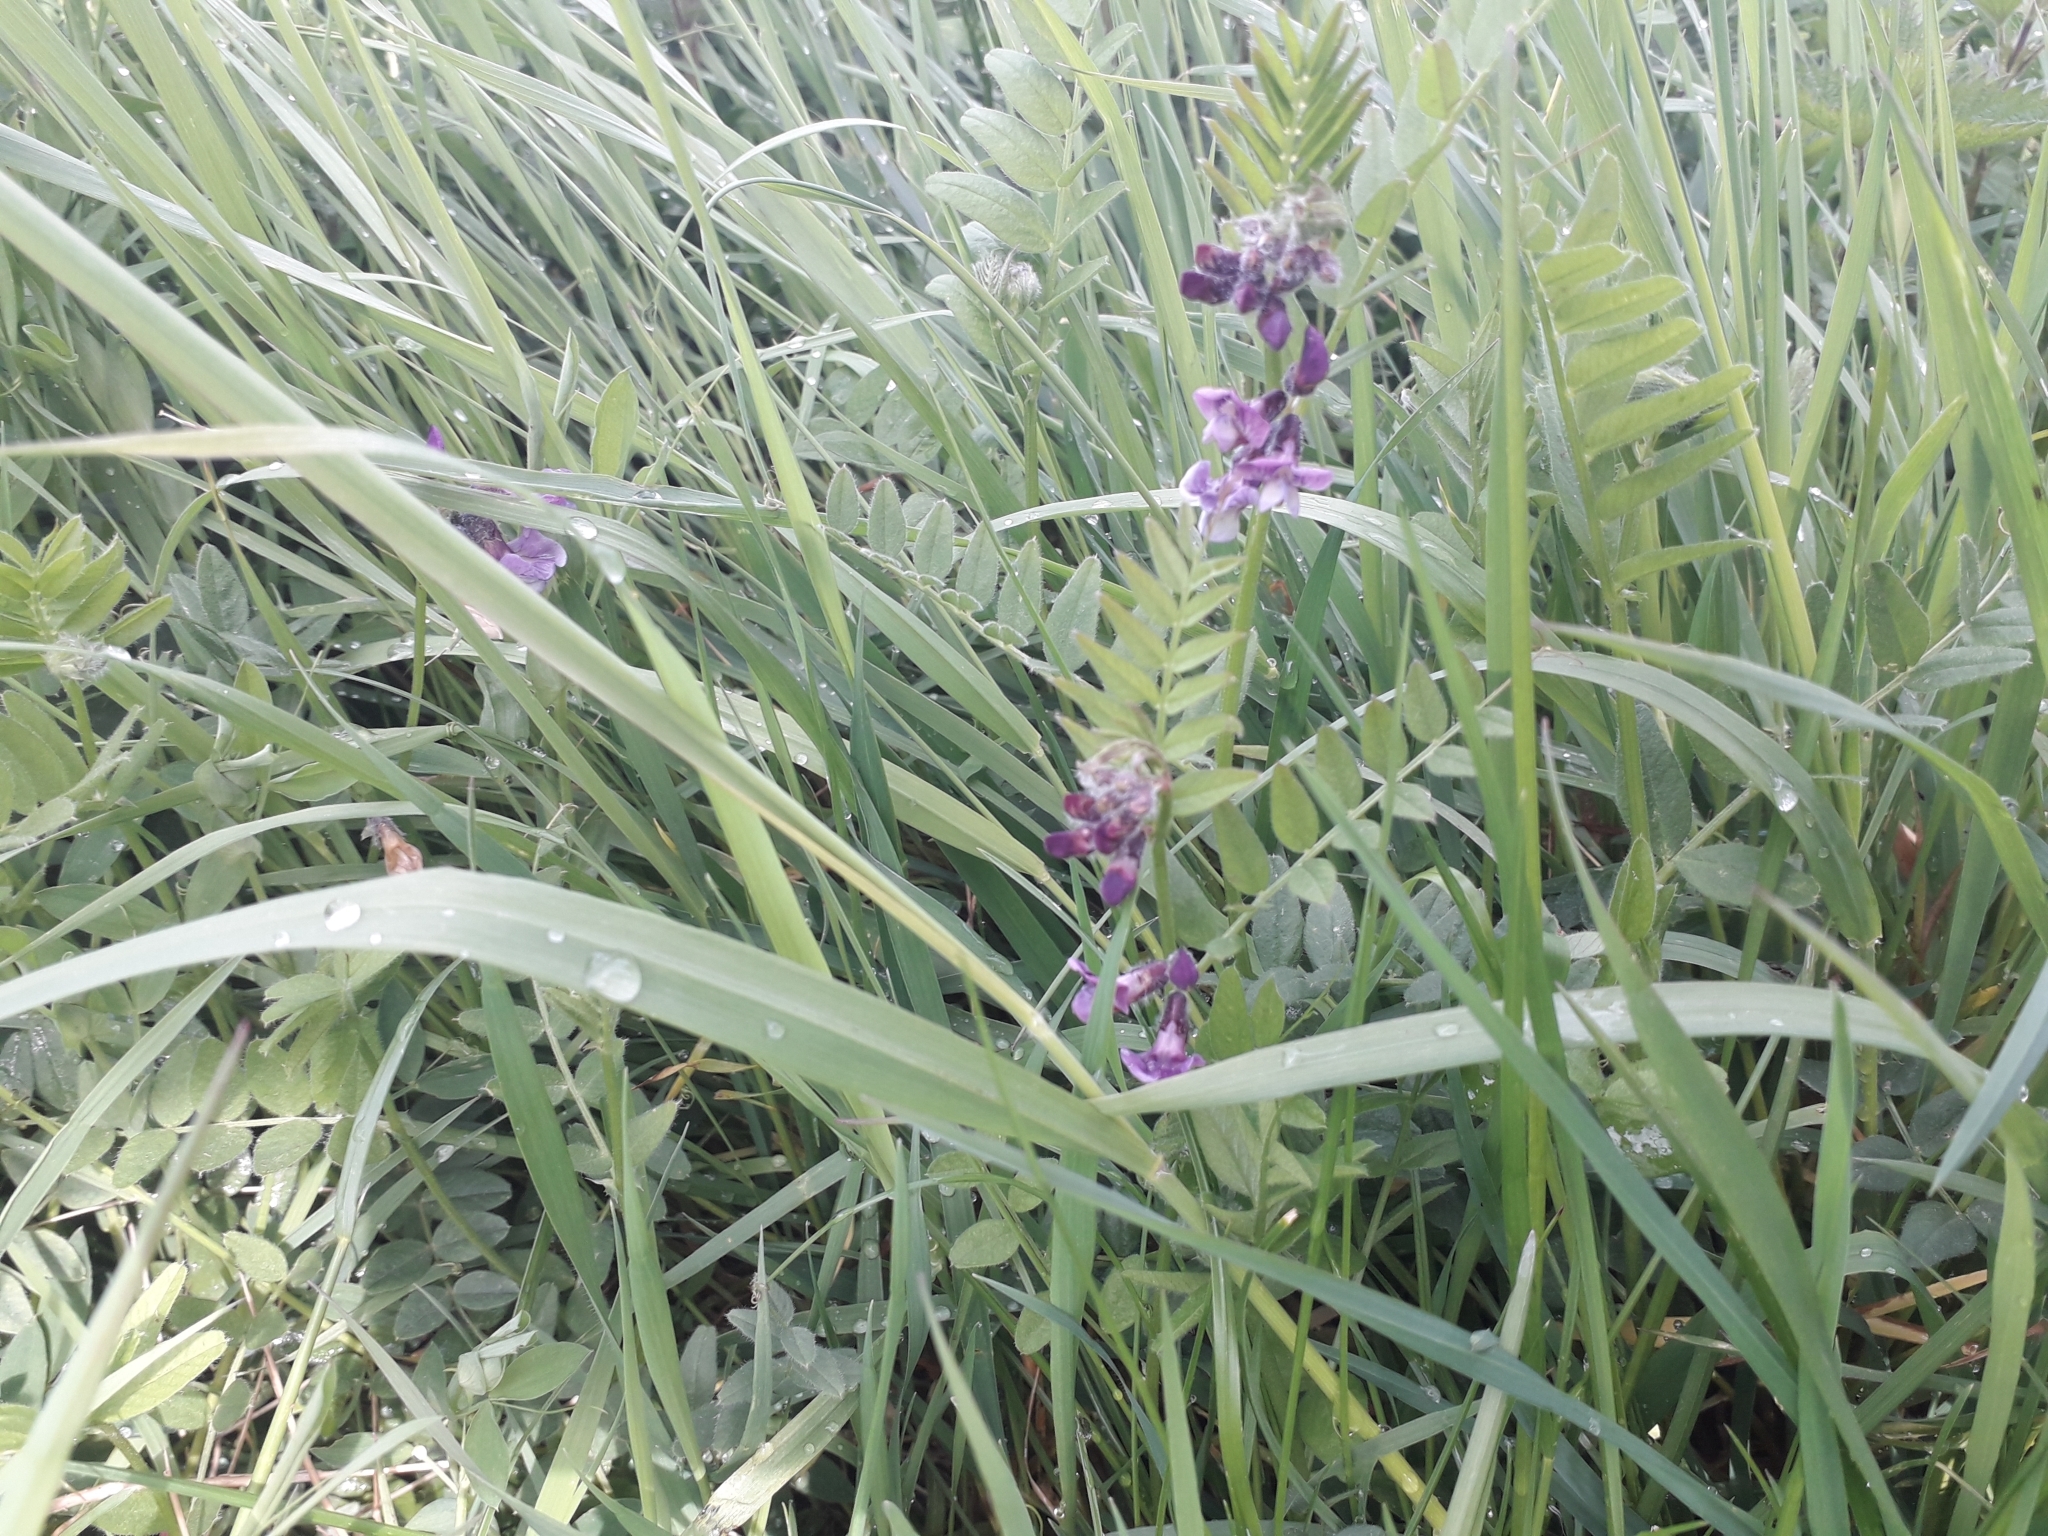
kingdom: Plantae
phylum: Tracheophyta
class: Magnoliopsida
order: Fabales
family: Fabaceae
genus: Vicia
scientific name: Vicia sepium
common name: Bush vetch
